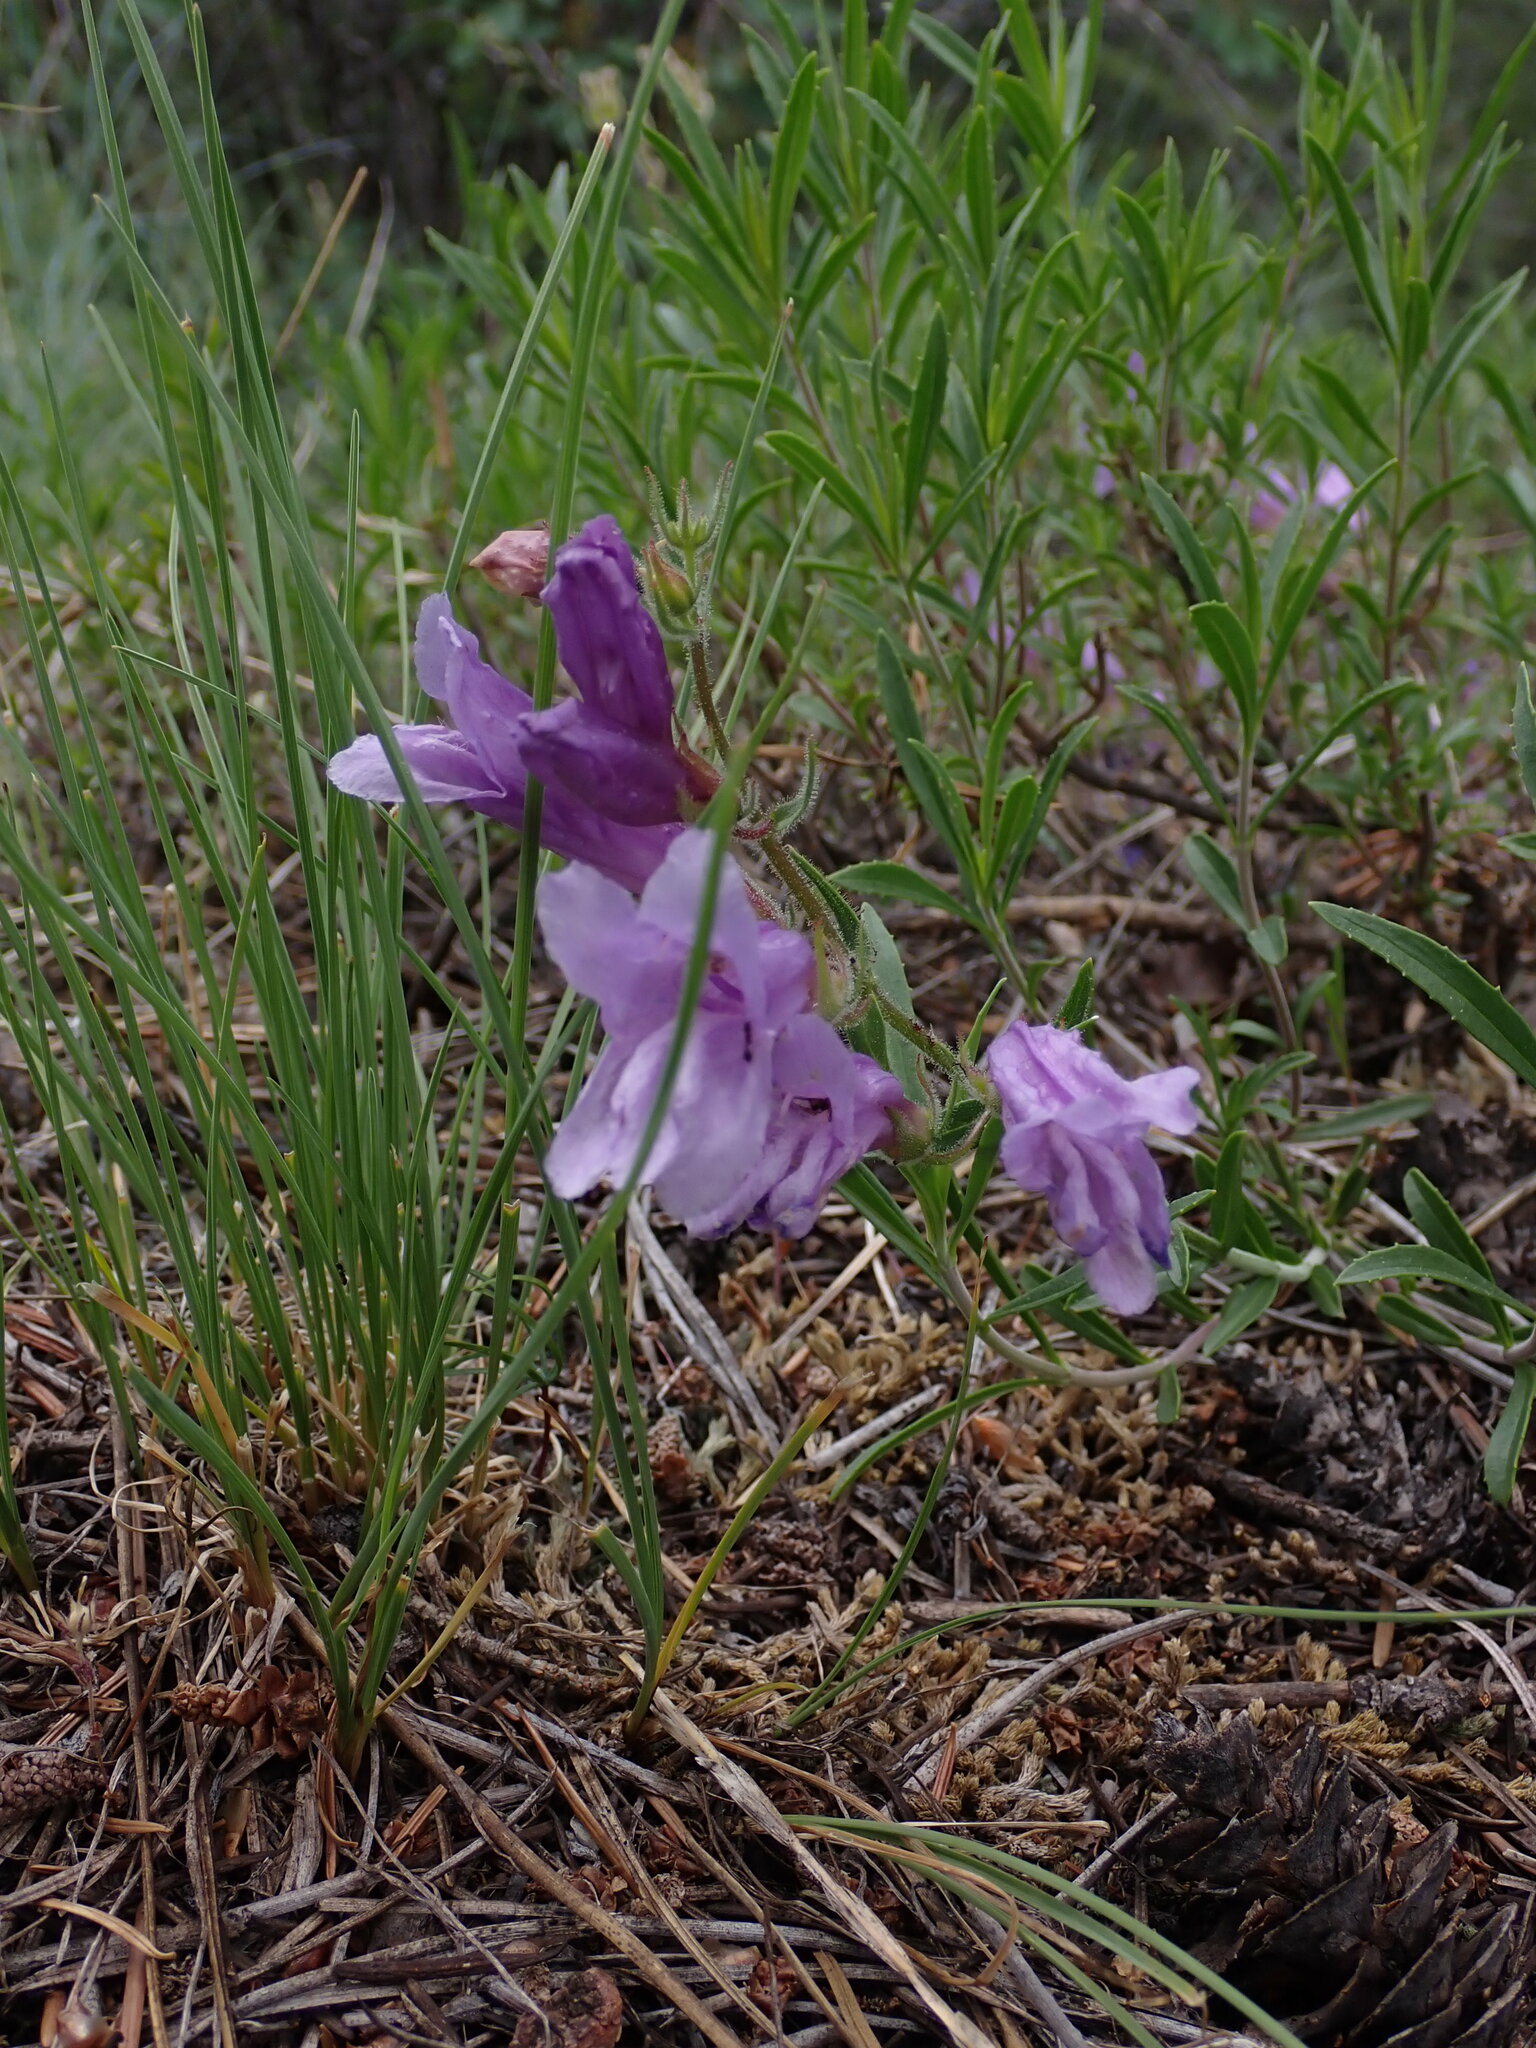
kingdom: Plantae
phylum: Tracheophyta
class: Magnoliopsida
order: Lamiales
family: Plantaginaceae
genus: Penstemon
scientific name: Penstemon fruticosus
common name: Bush penstemon
